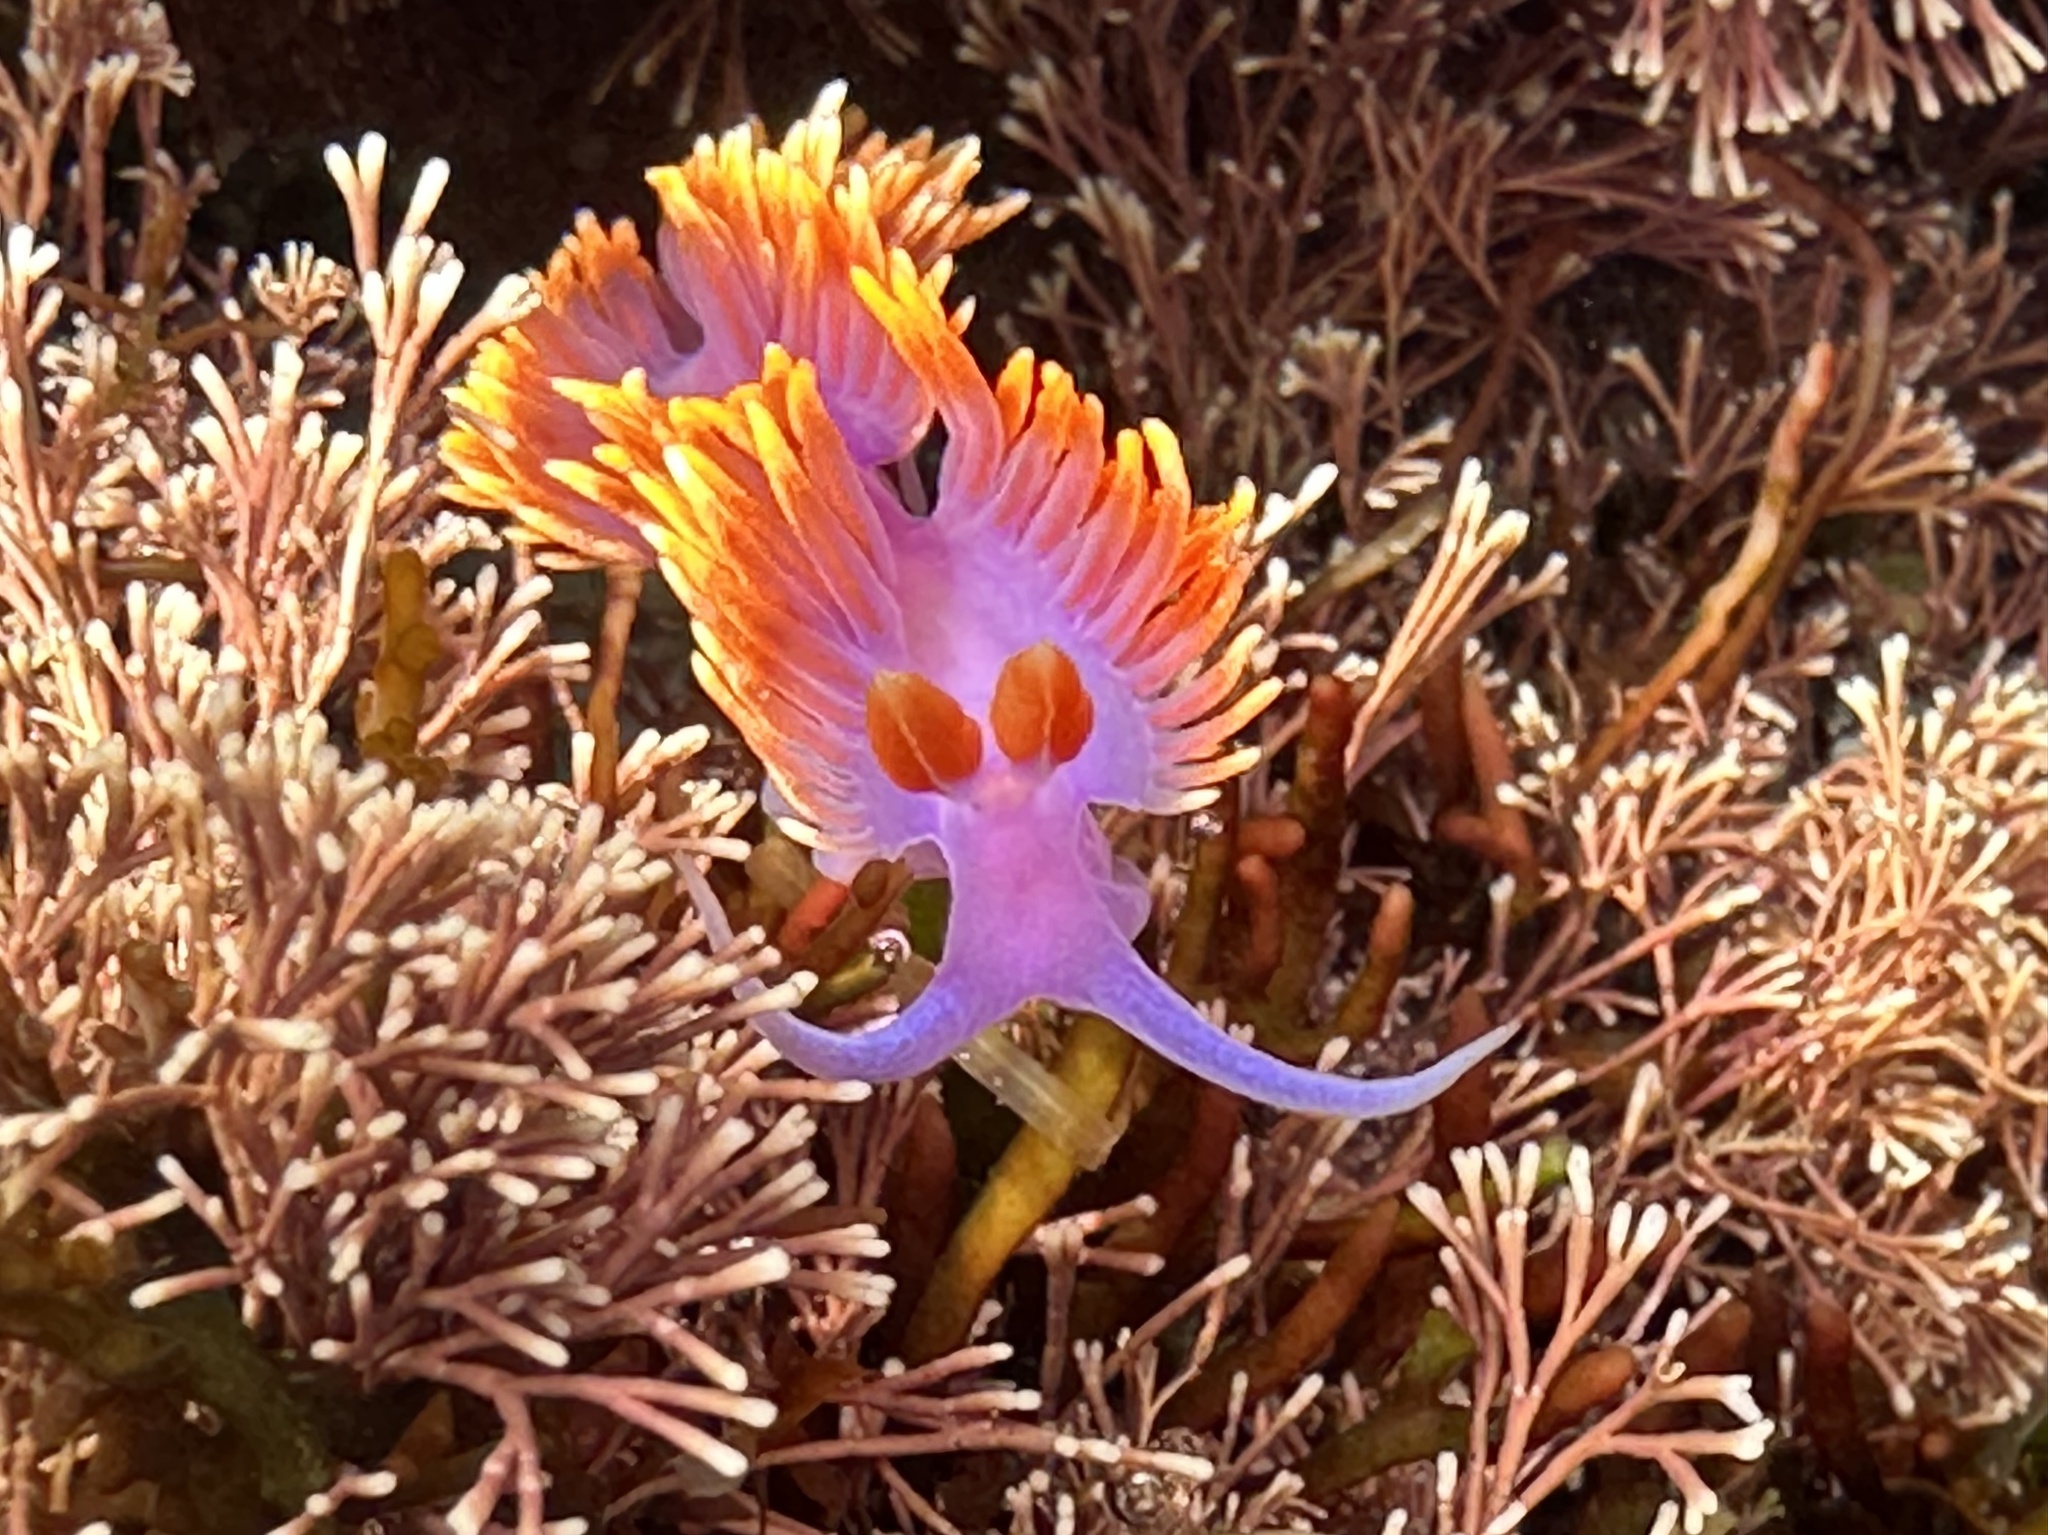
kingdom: Animalia
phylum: Mollusca
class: Gastropoda
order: Nudibranchia
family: Flabellinopsidae
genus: Flabellinopsis
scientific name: Flabellinopsis iodinea
